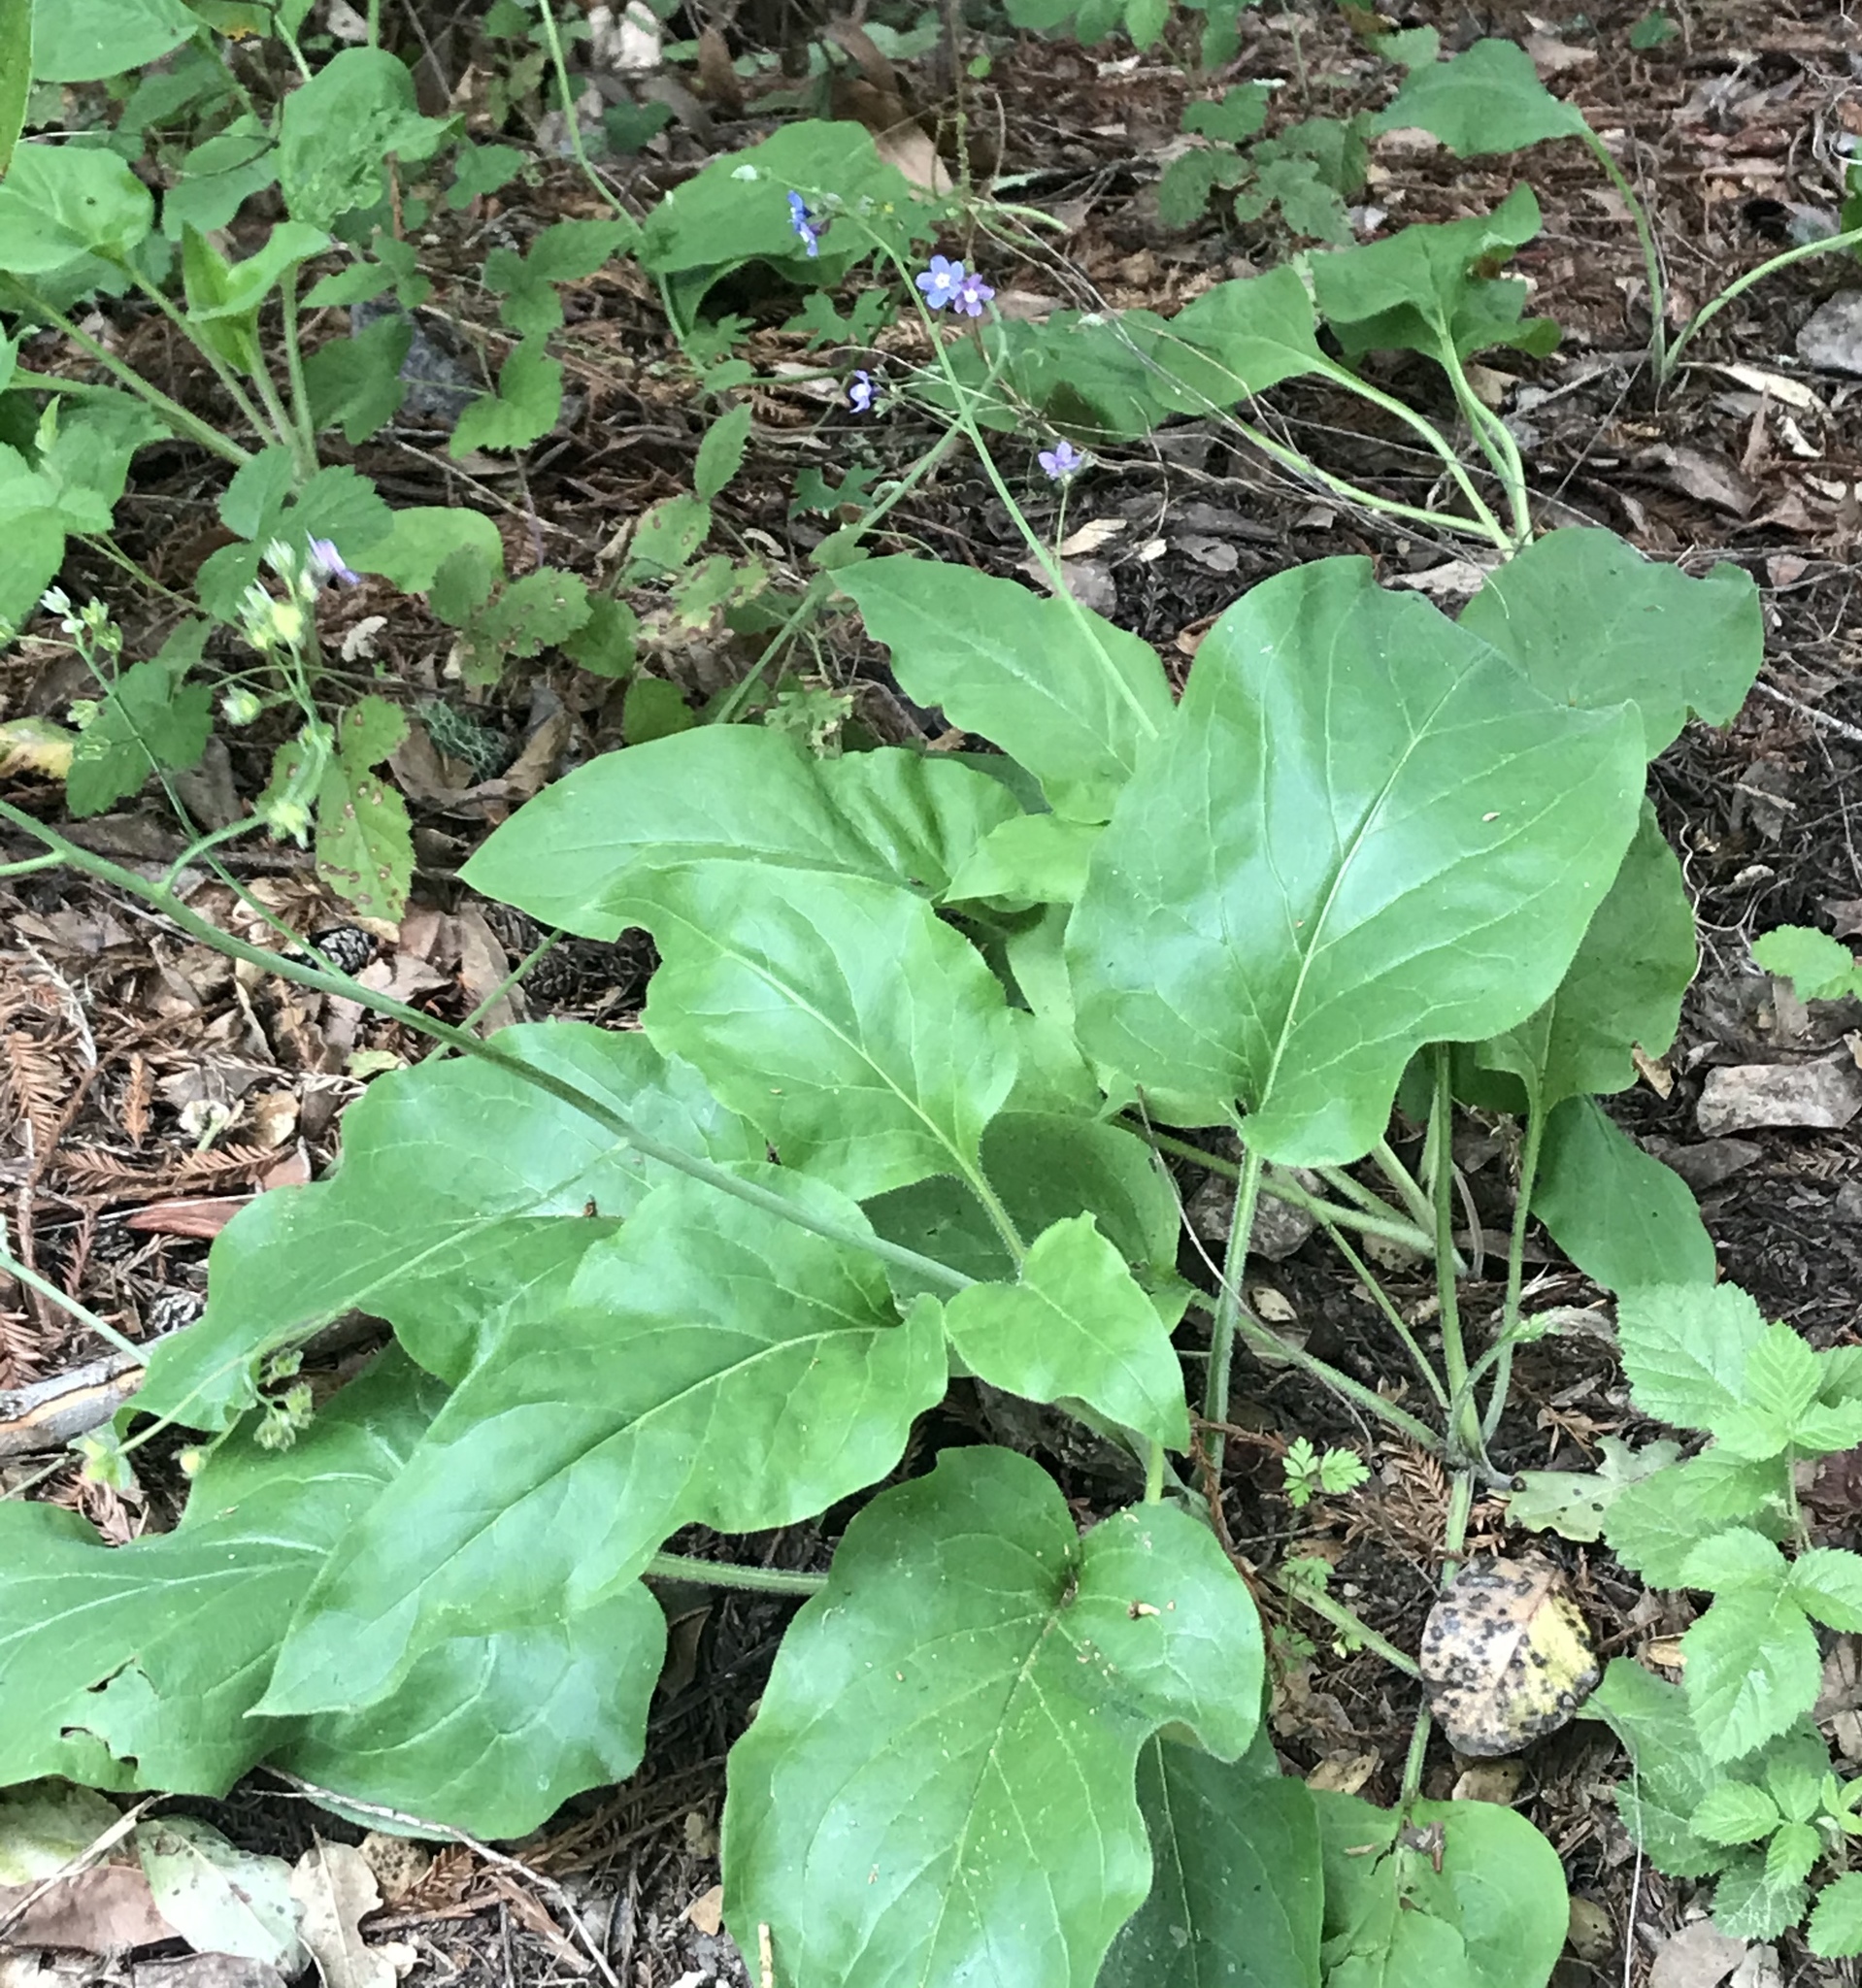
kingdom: Plantae
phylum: Tracheophyta
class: Magnoliopsida
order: Boraginales
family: Boraginaceae
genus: Adelinia
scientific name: Adelinia grande
